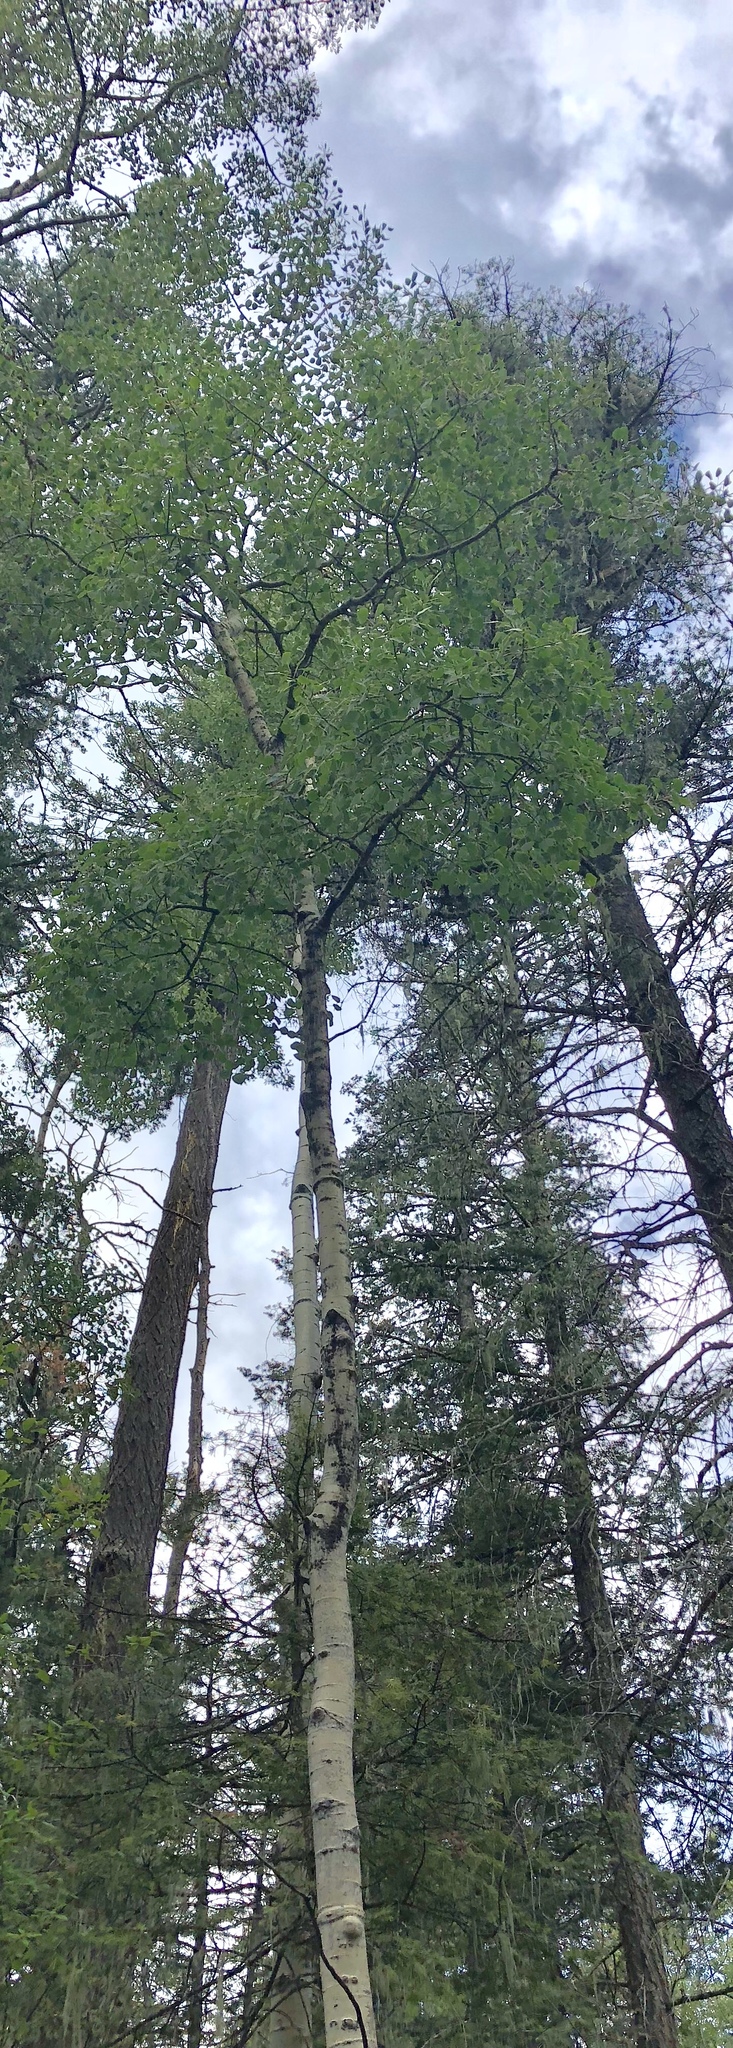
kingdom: Plantae
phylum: Tracheophyta
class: Magnoliopsida
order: Malpighiales
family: Salicaceae
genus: Populus
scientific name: Populus tremuloides
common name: Quaking aspen
